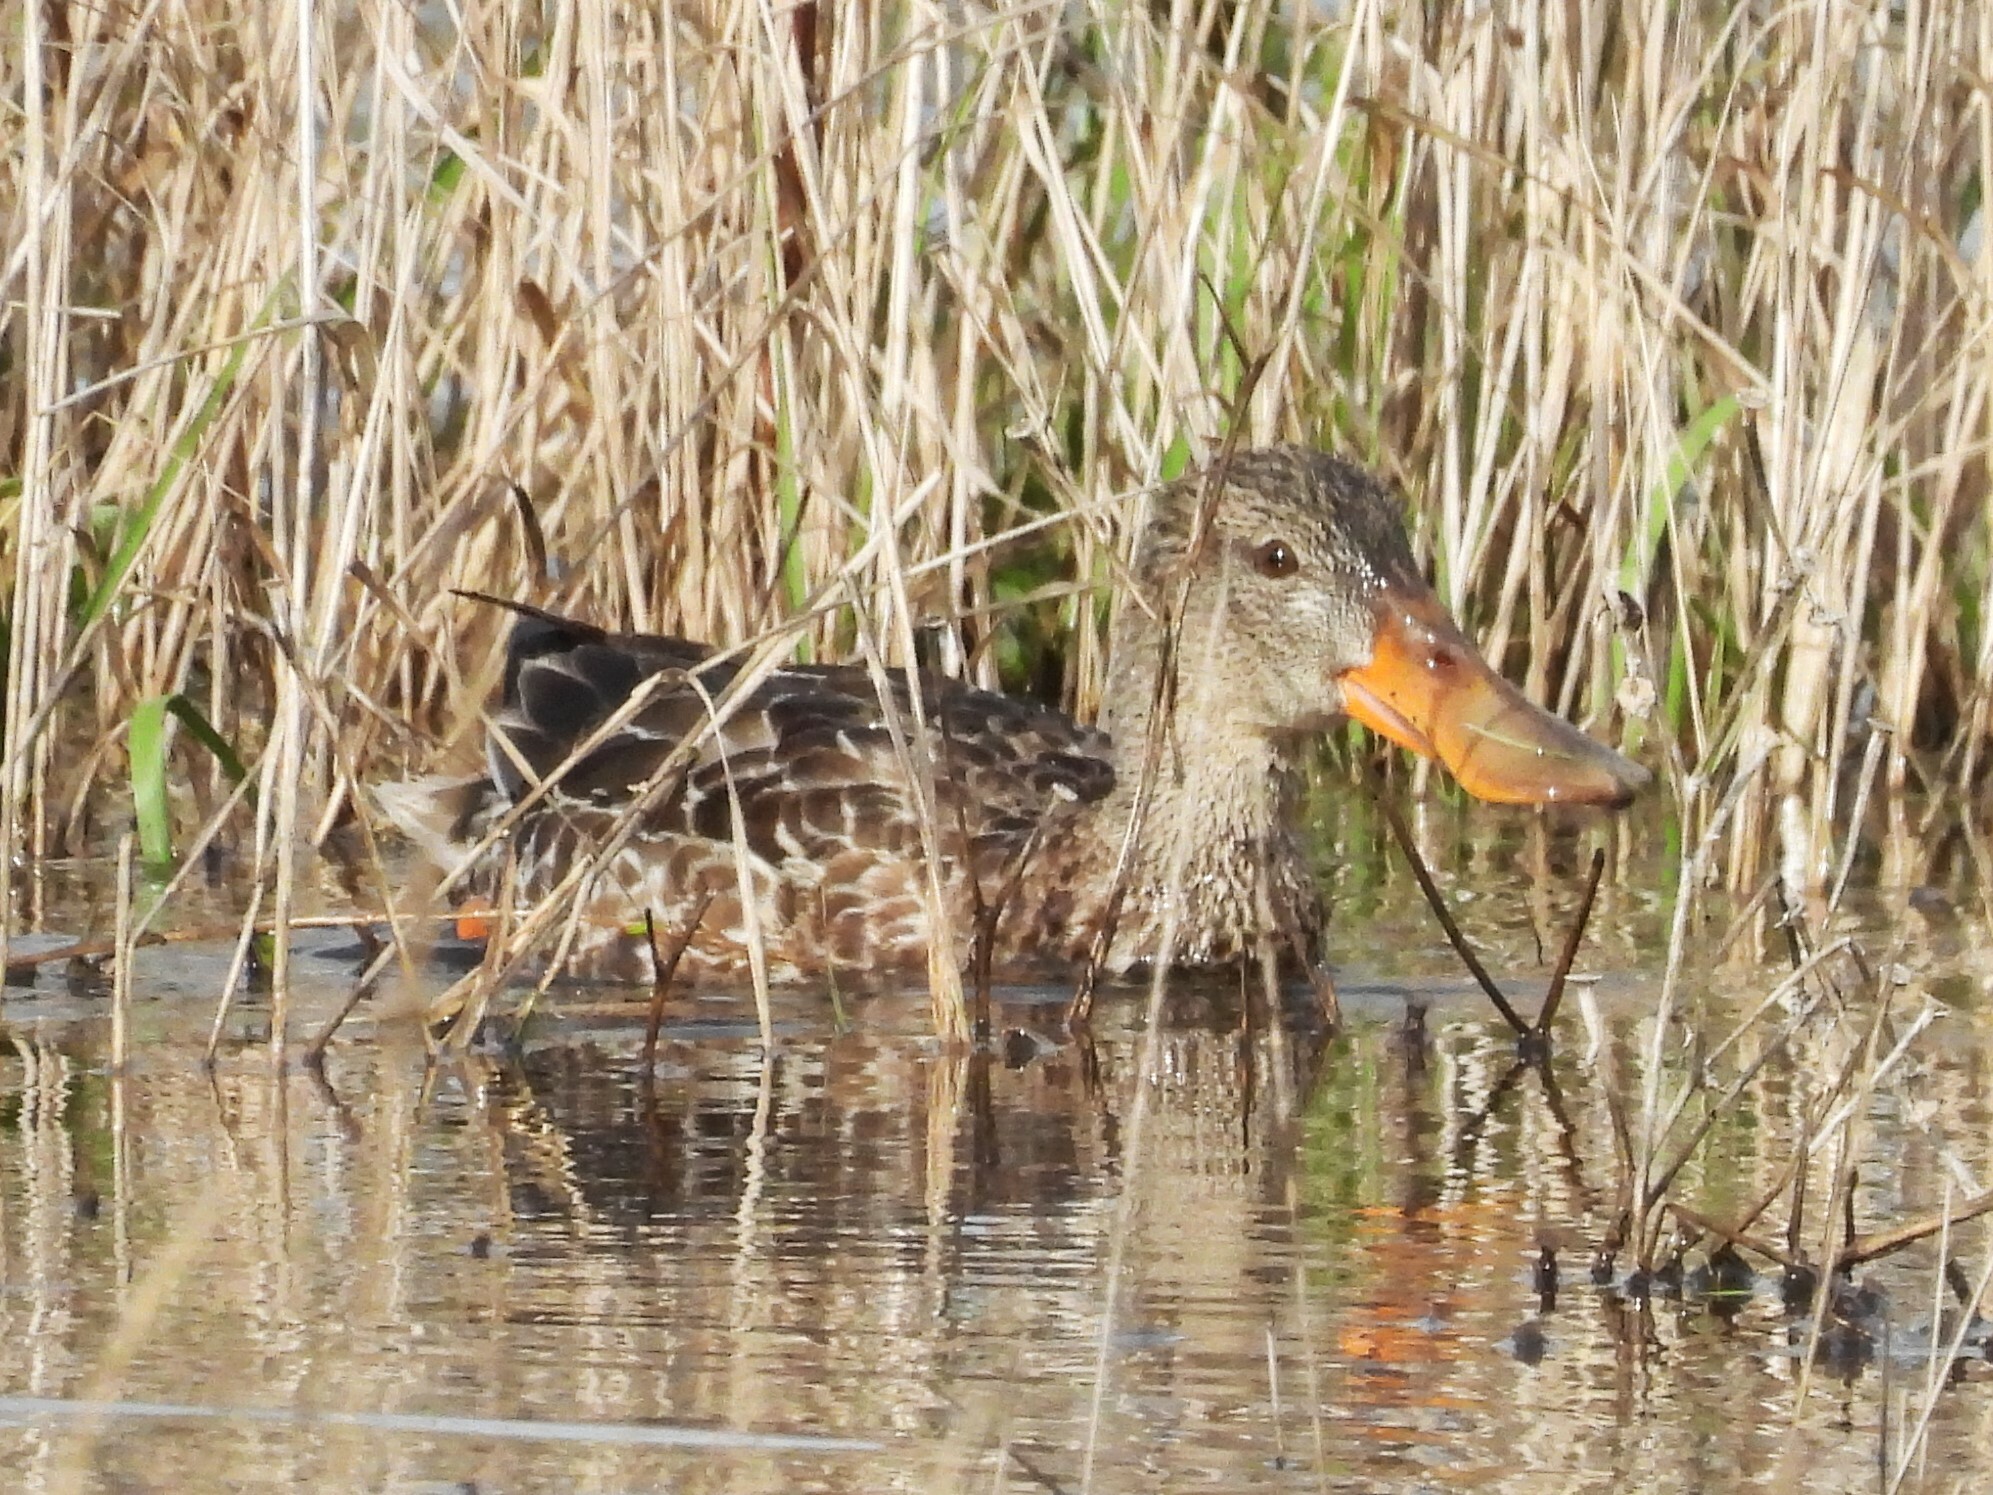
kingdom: Animalia
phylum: Chordata
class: Aves
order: Anseriformes
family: Anatidae
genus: Spatula
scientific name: Spatula clypeata
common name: Northern shoveler
